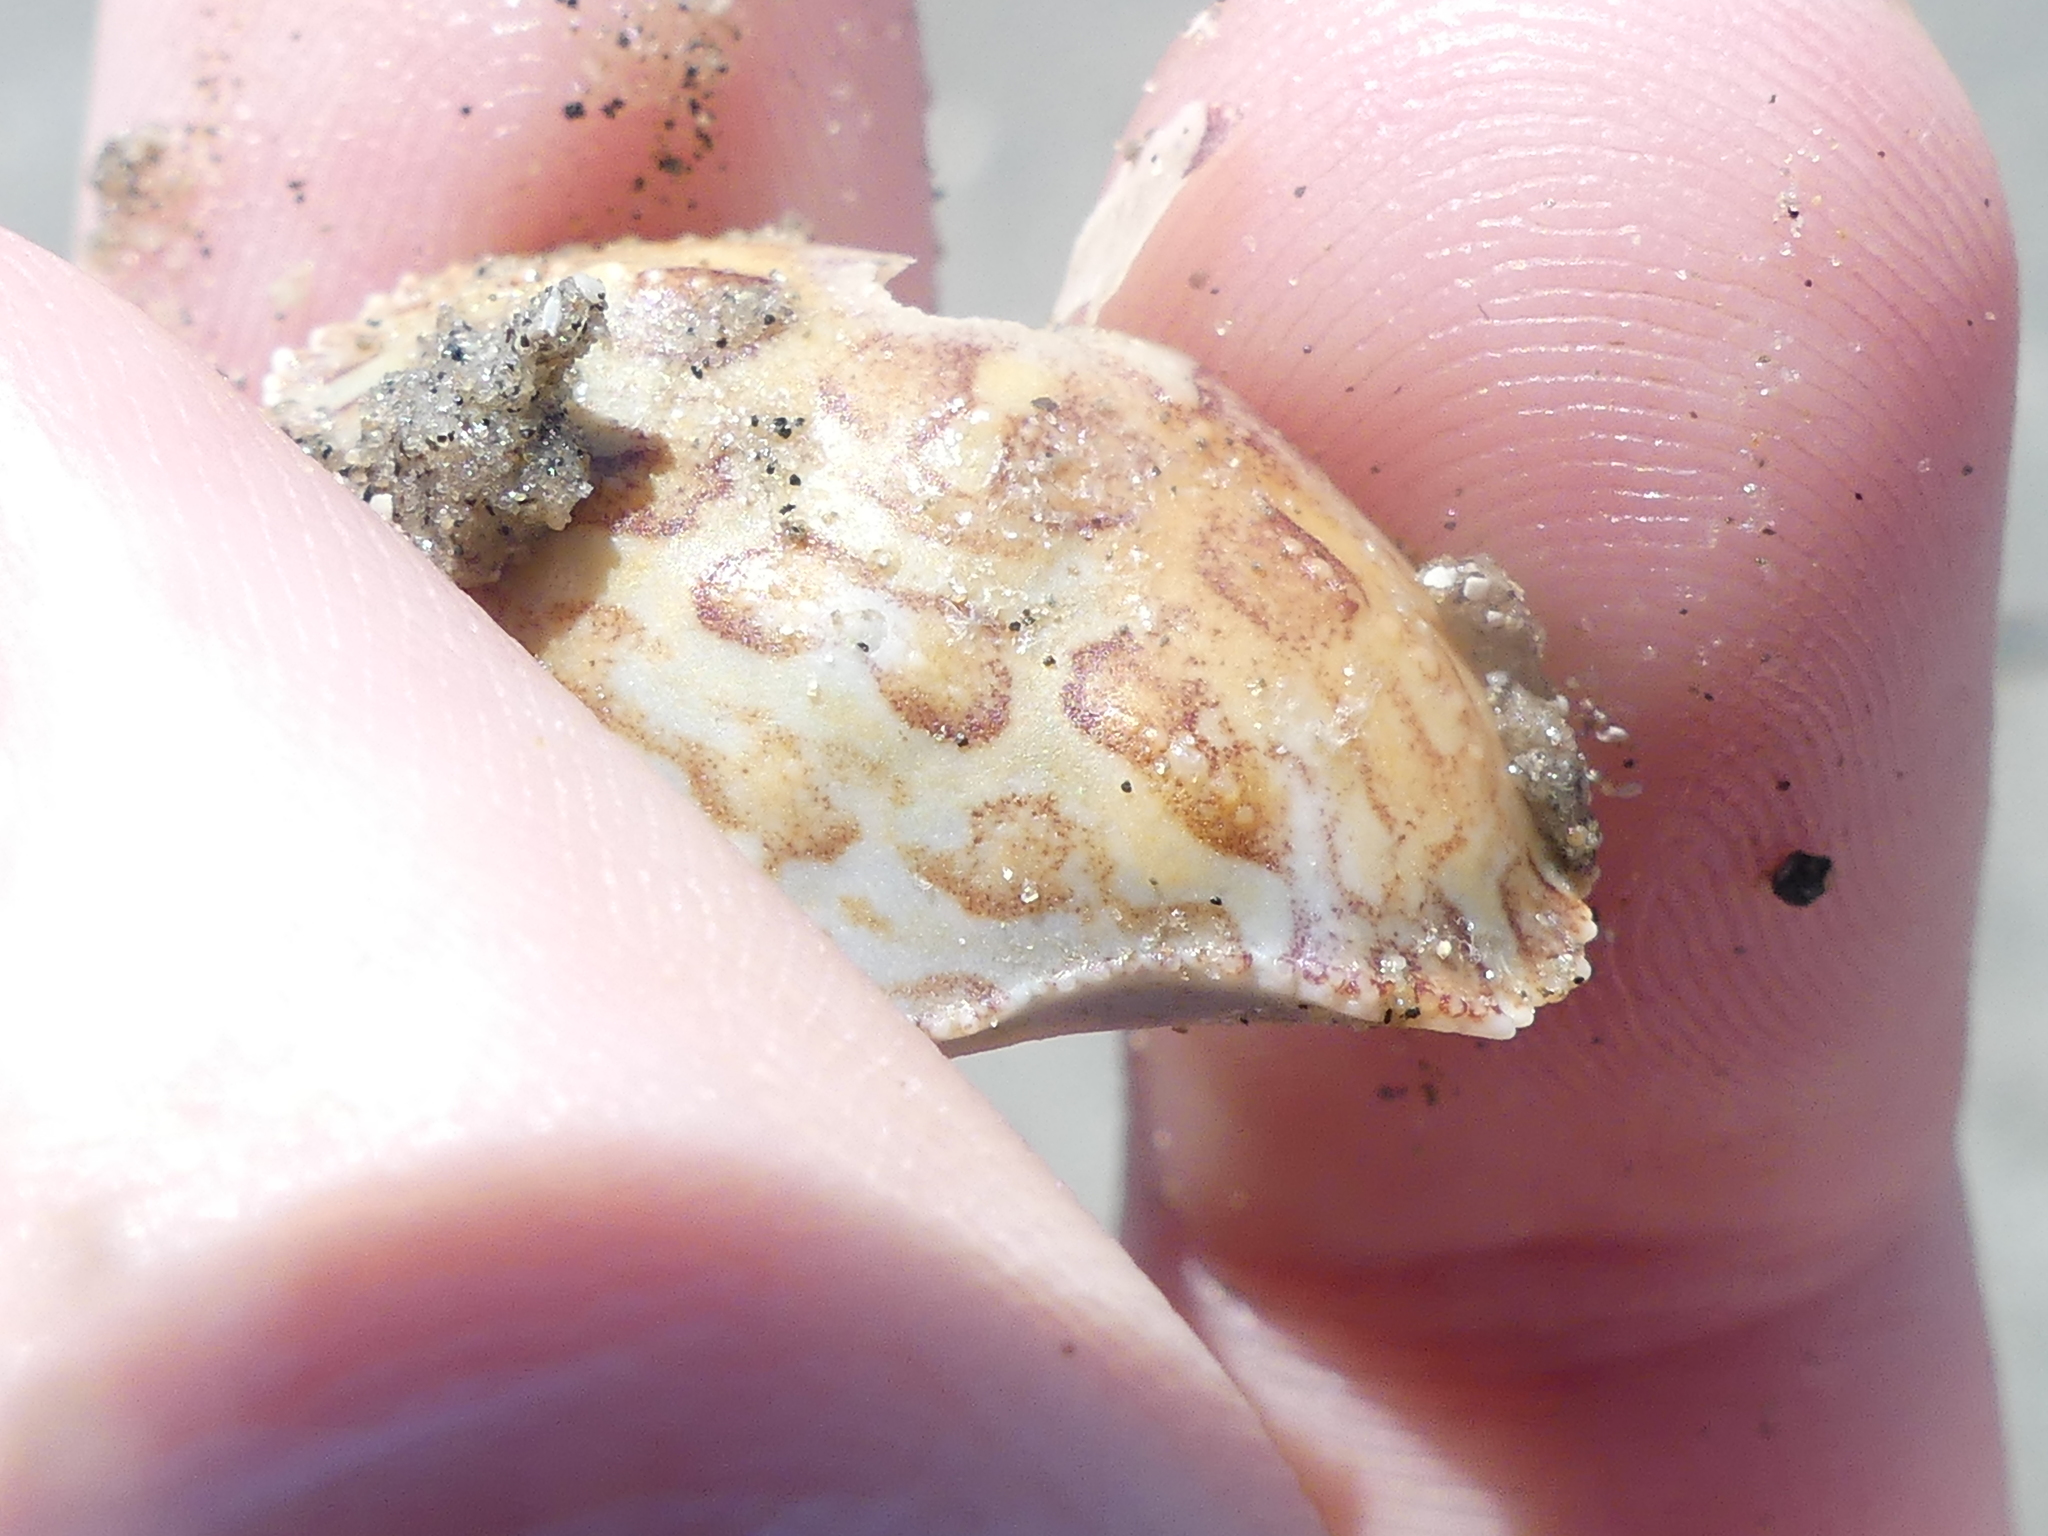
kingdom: Animalia
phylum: Arthropoda
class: Malacostraca
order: Decapoda
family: Aethridae
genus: Hepatus
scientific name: Hepatus epheliticus
